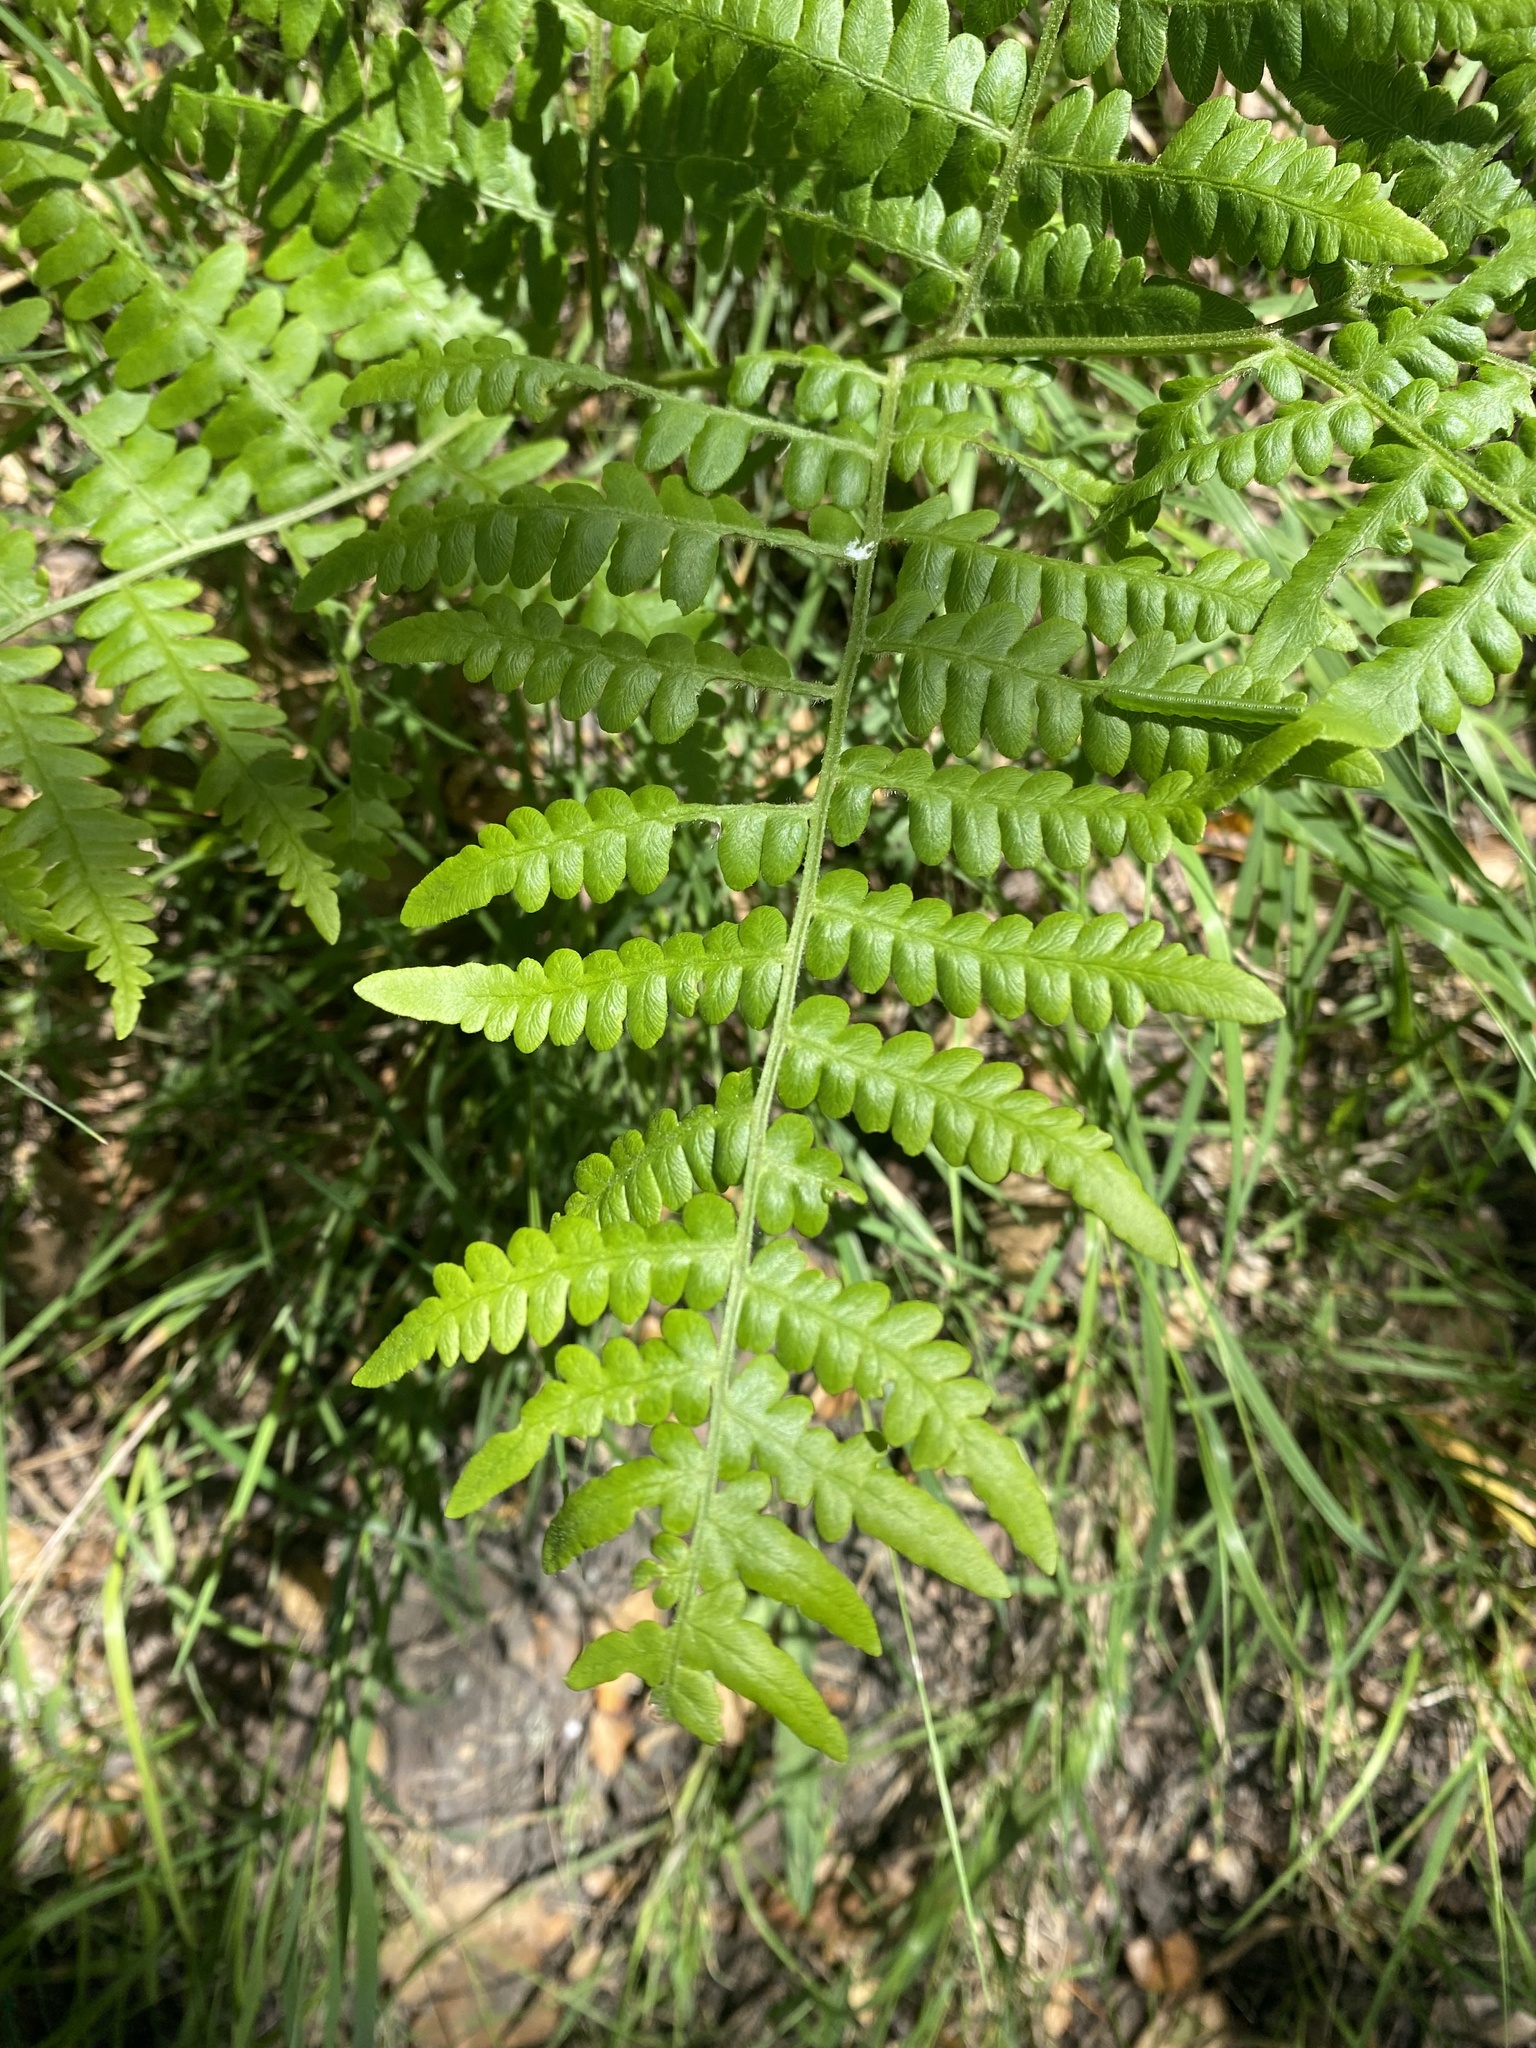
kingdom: Plantae
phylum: Tracheophyta
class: Polypodiopsida
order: Polypodiales
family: Dennstaedtiaceae
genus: Pteridium
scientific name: Pteridium aquilinum
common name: Bracken
